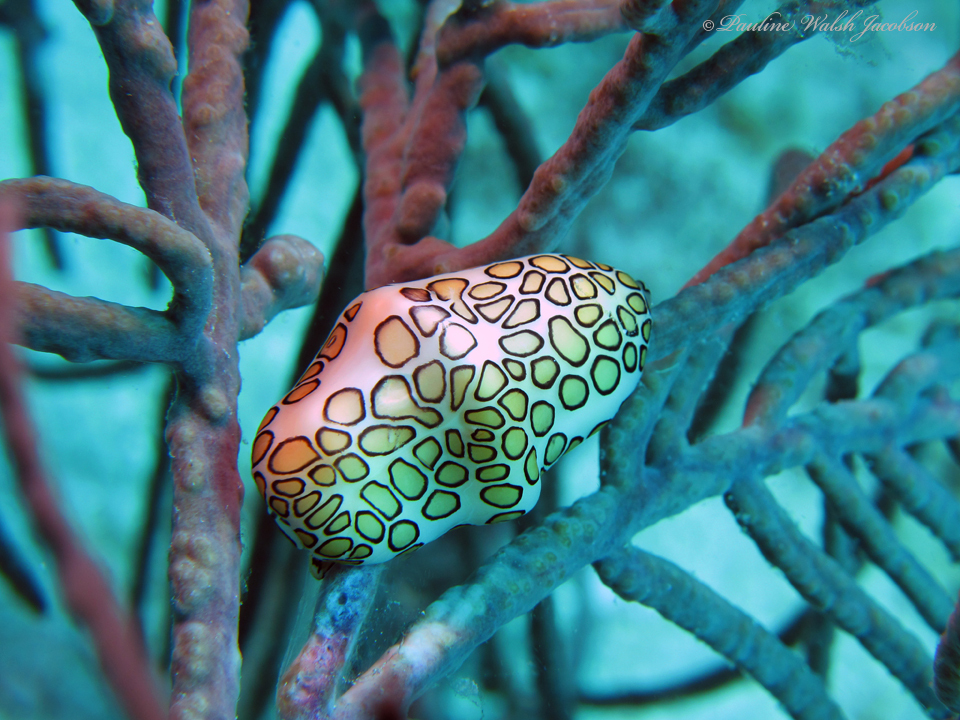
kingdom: Animalia
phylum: Mollusca
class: Gastropoda
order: Littorinimorpha
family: Ovulidae
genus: Cyphoma
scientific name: Cyphoma gibbosum
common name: Flamingo tongue
